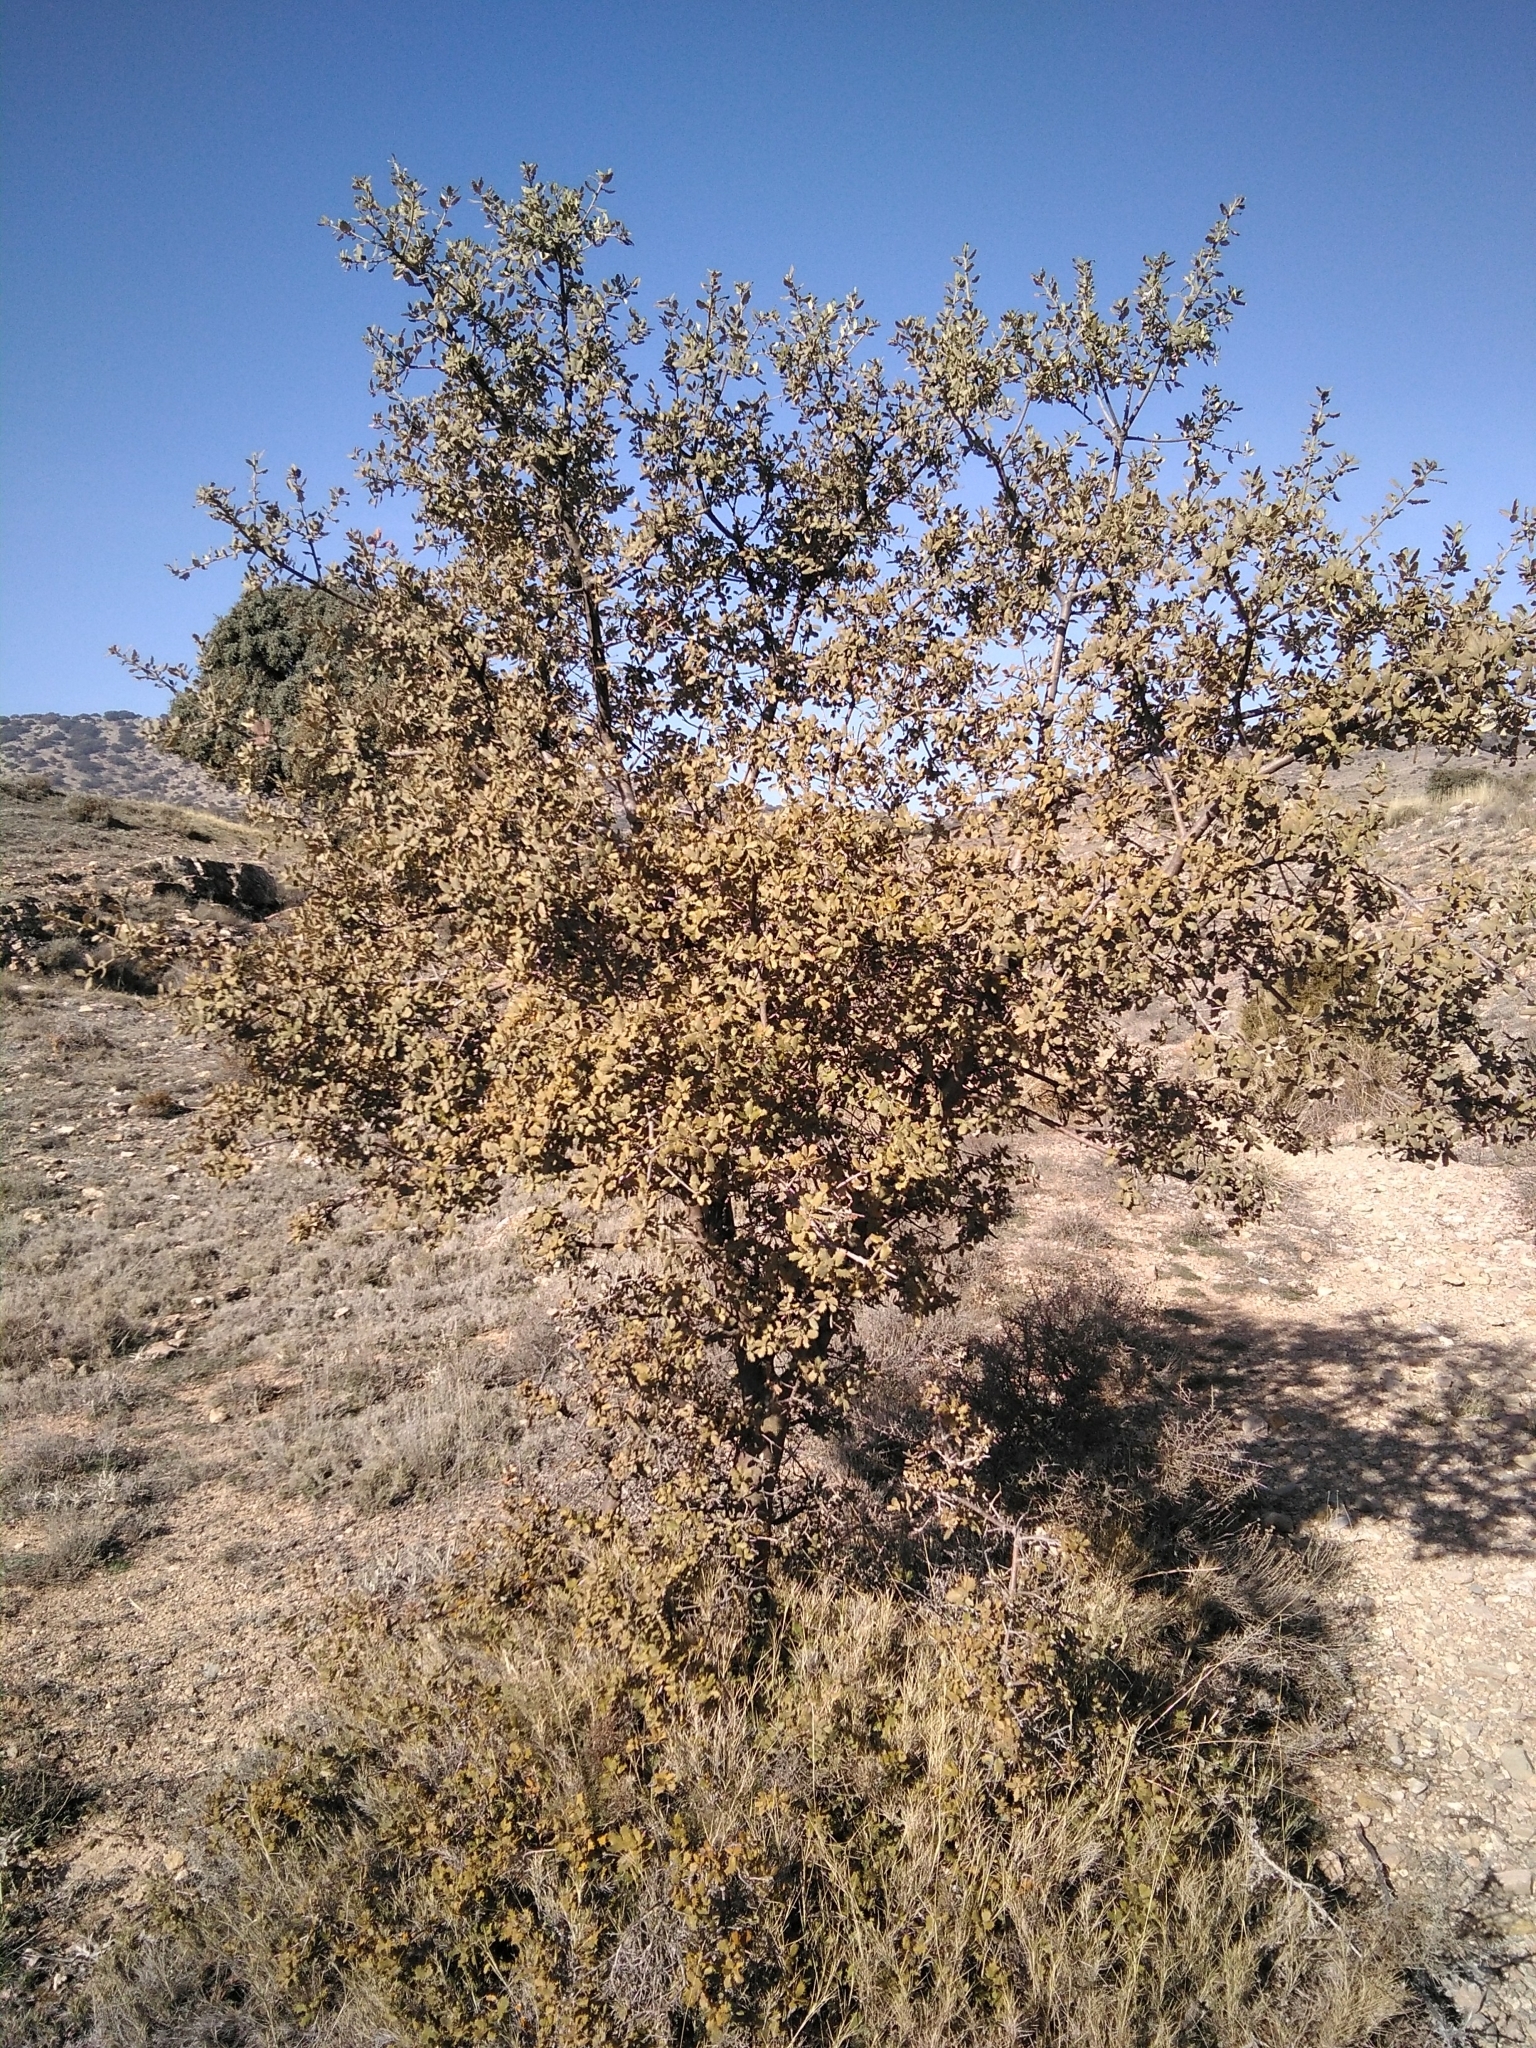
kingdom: Plantae
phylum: Tracheophyta
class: Magnoliopsida
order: Fagales
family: Fagaceae
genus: Quercus
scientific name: Quercus rotundifolia
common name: Holm oak
